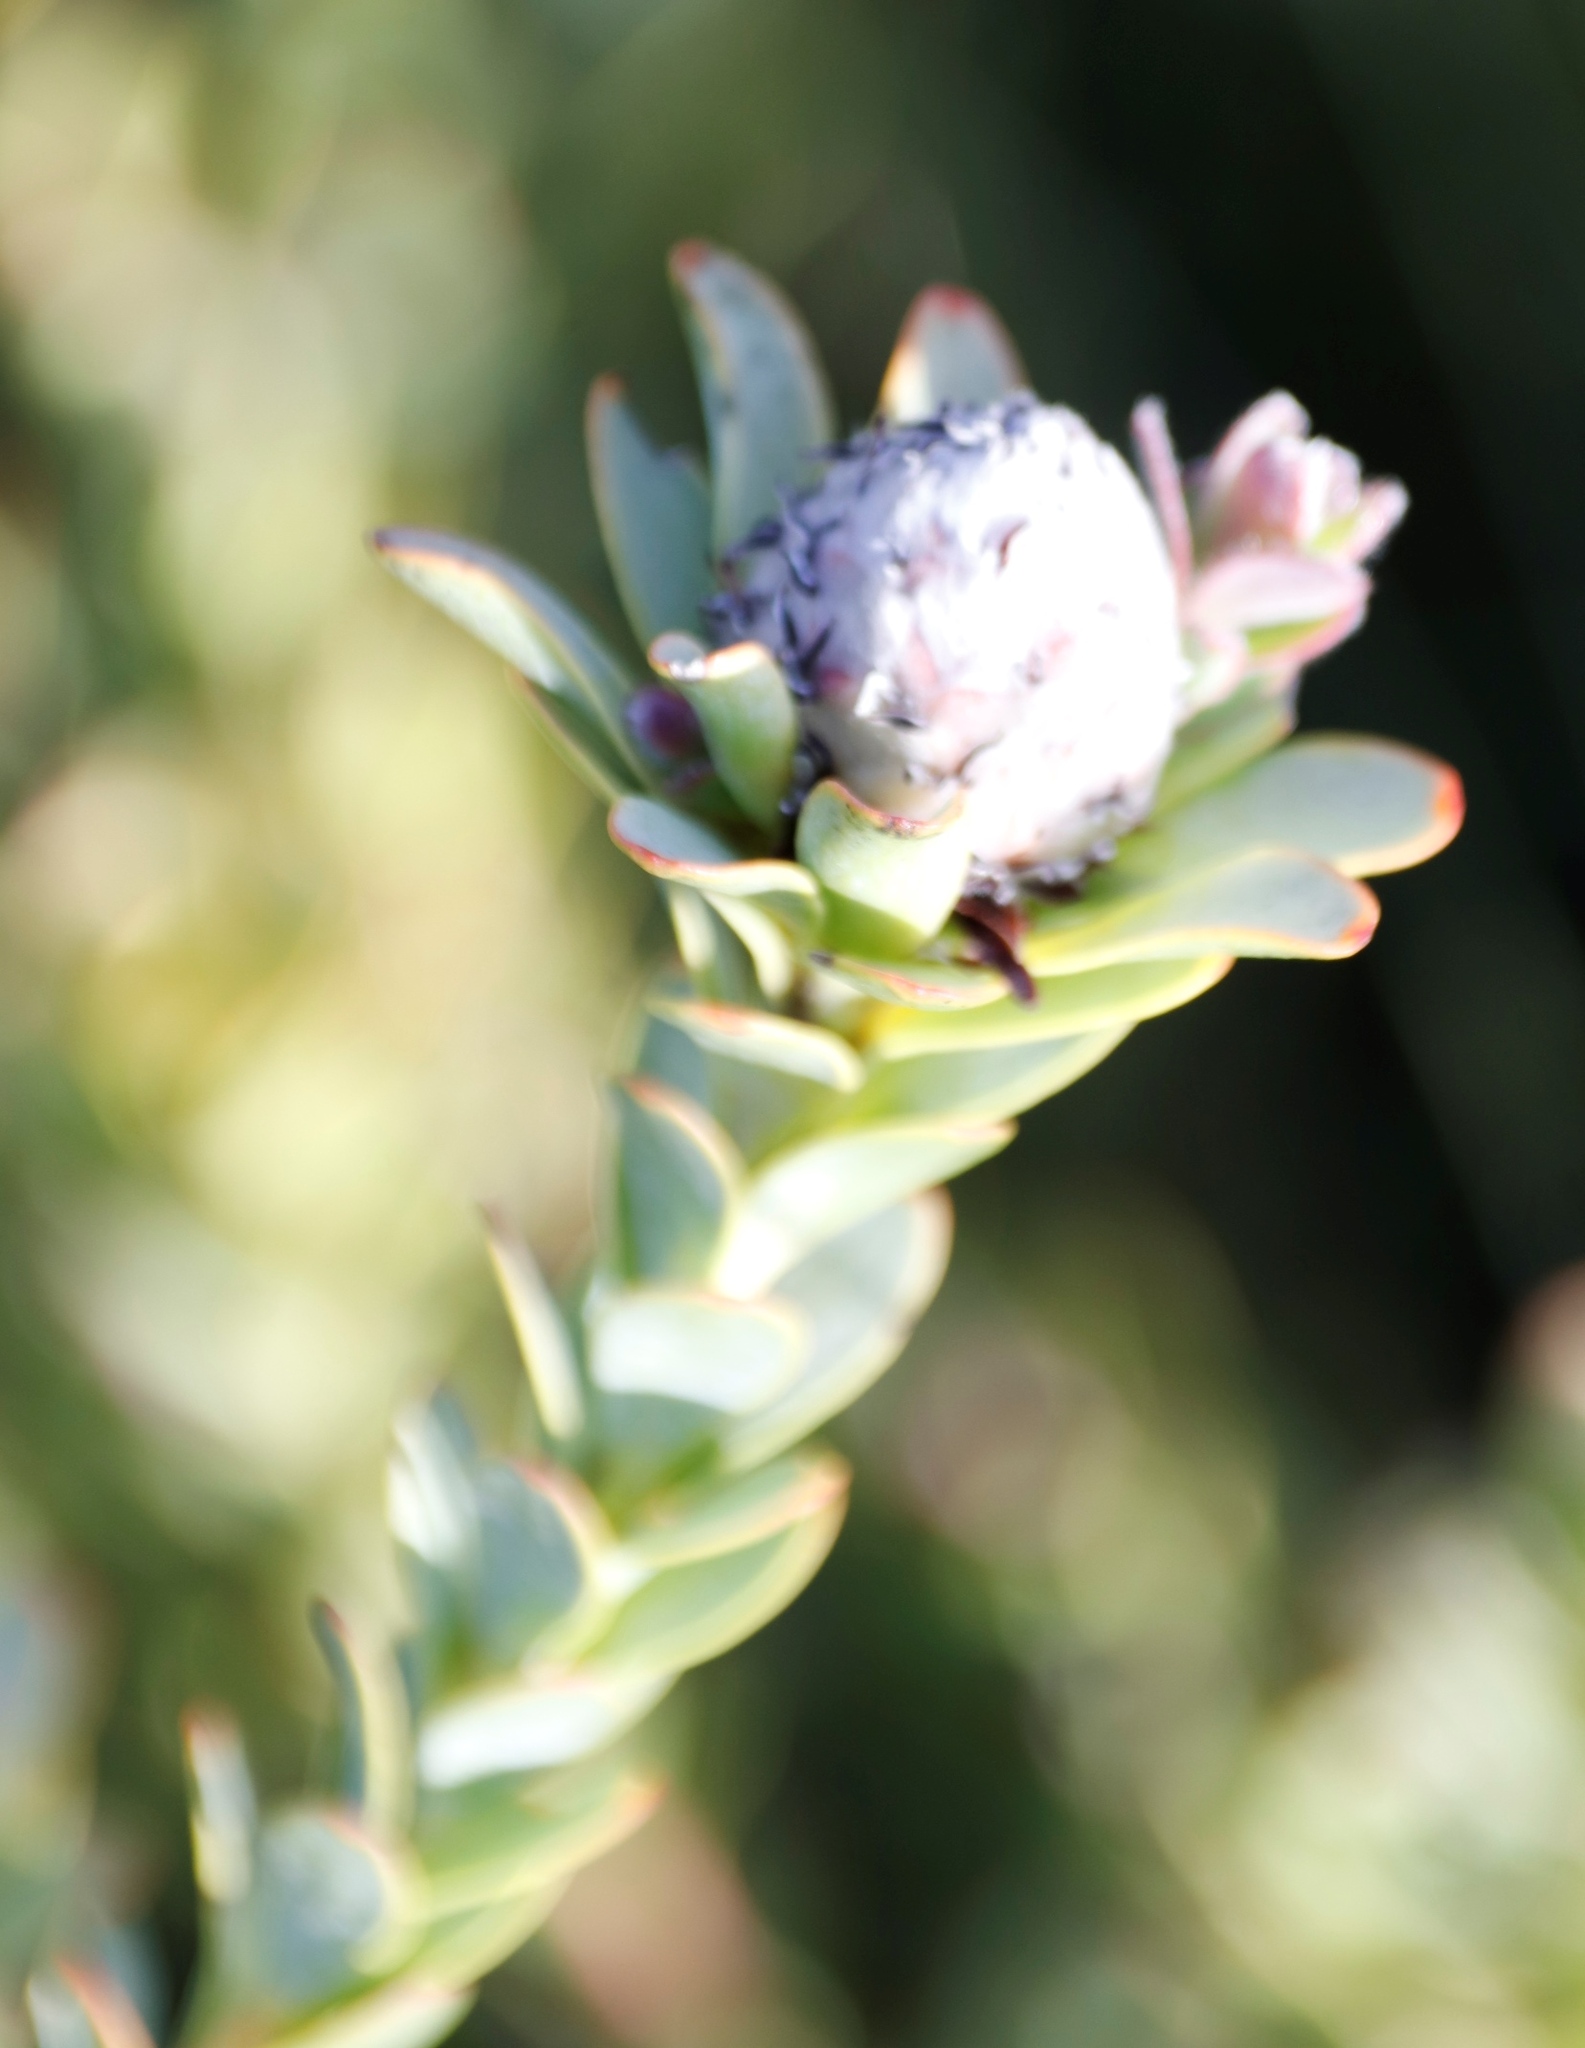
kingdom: Plantae
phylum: Tracheophyta
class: Magnoliopsida
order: Proteales
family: Proteaceae
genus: Leucadendron
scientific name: Leucadendron coriaceum
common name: Rosette conebush
